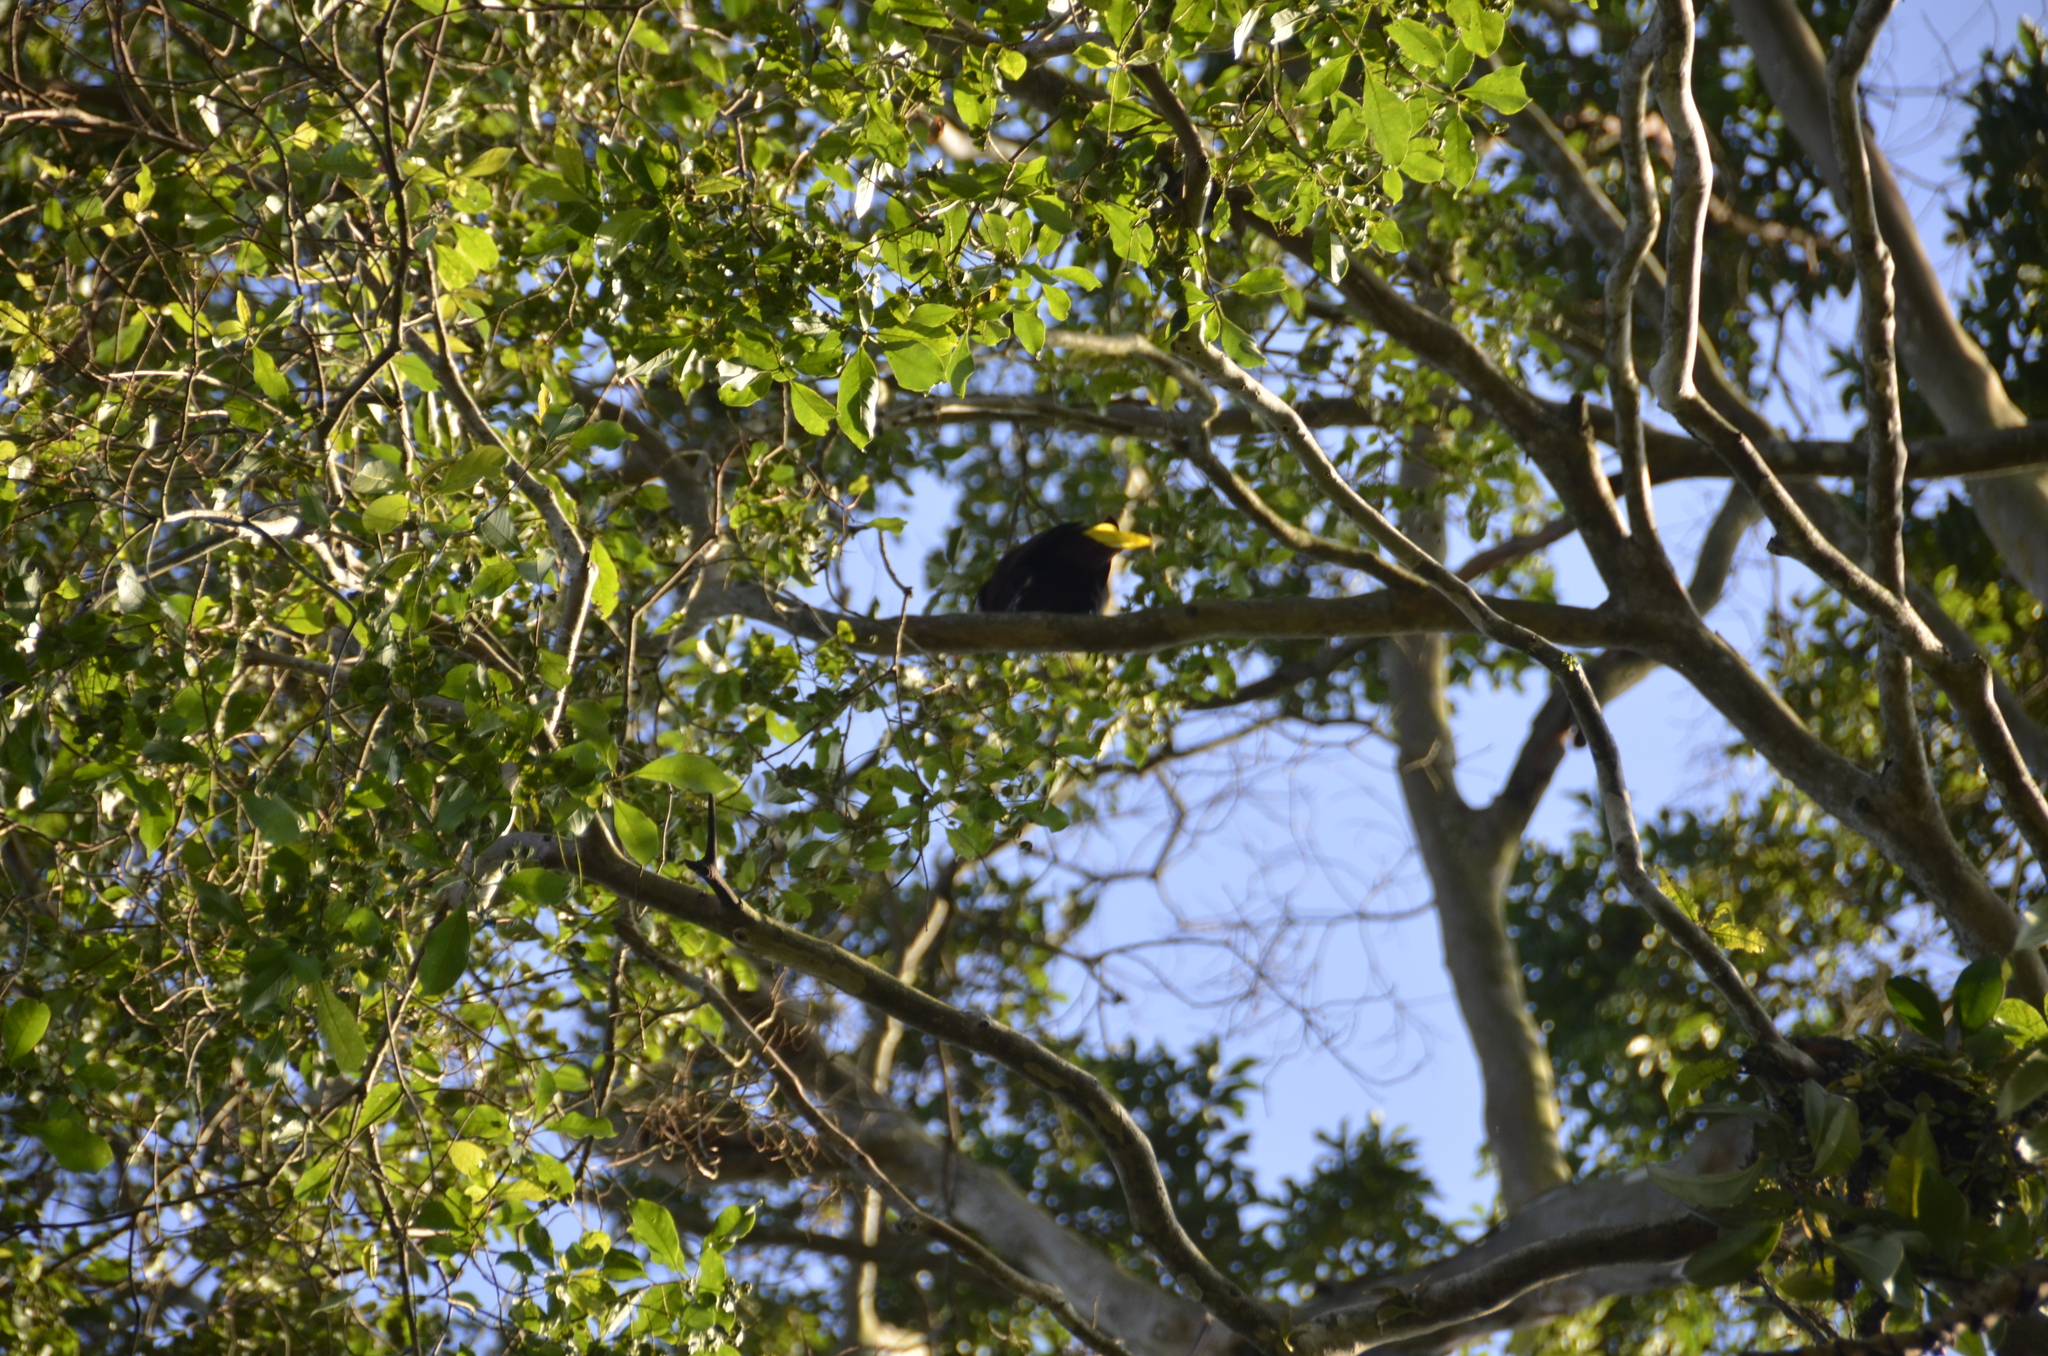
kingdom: Animalia
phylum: Chordata
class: Aves
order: Passeriformes
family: Icteridae
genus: Psarocolius
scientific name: Psarocolius montezuma
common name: Montezuma oropendola
